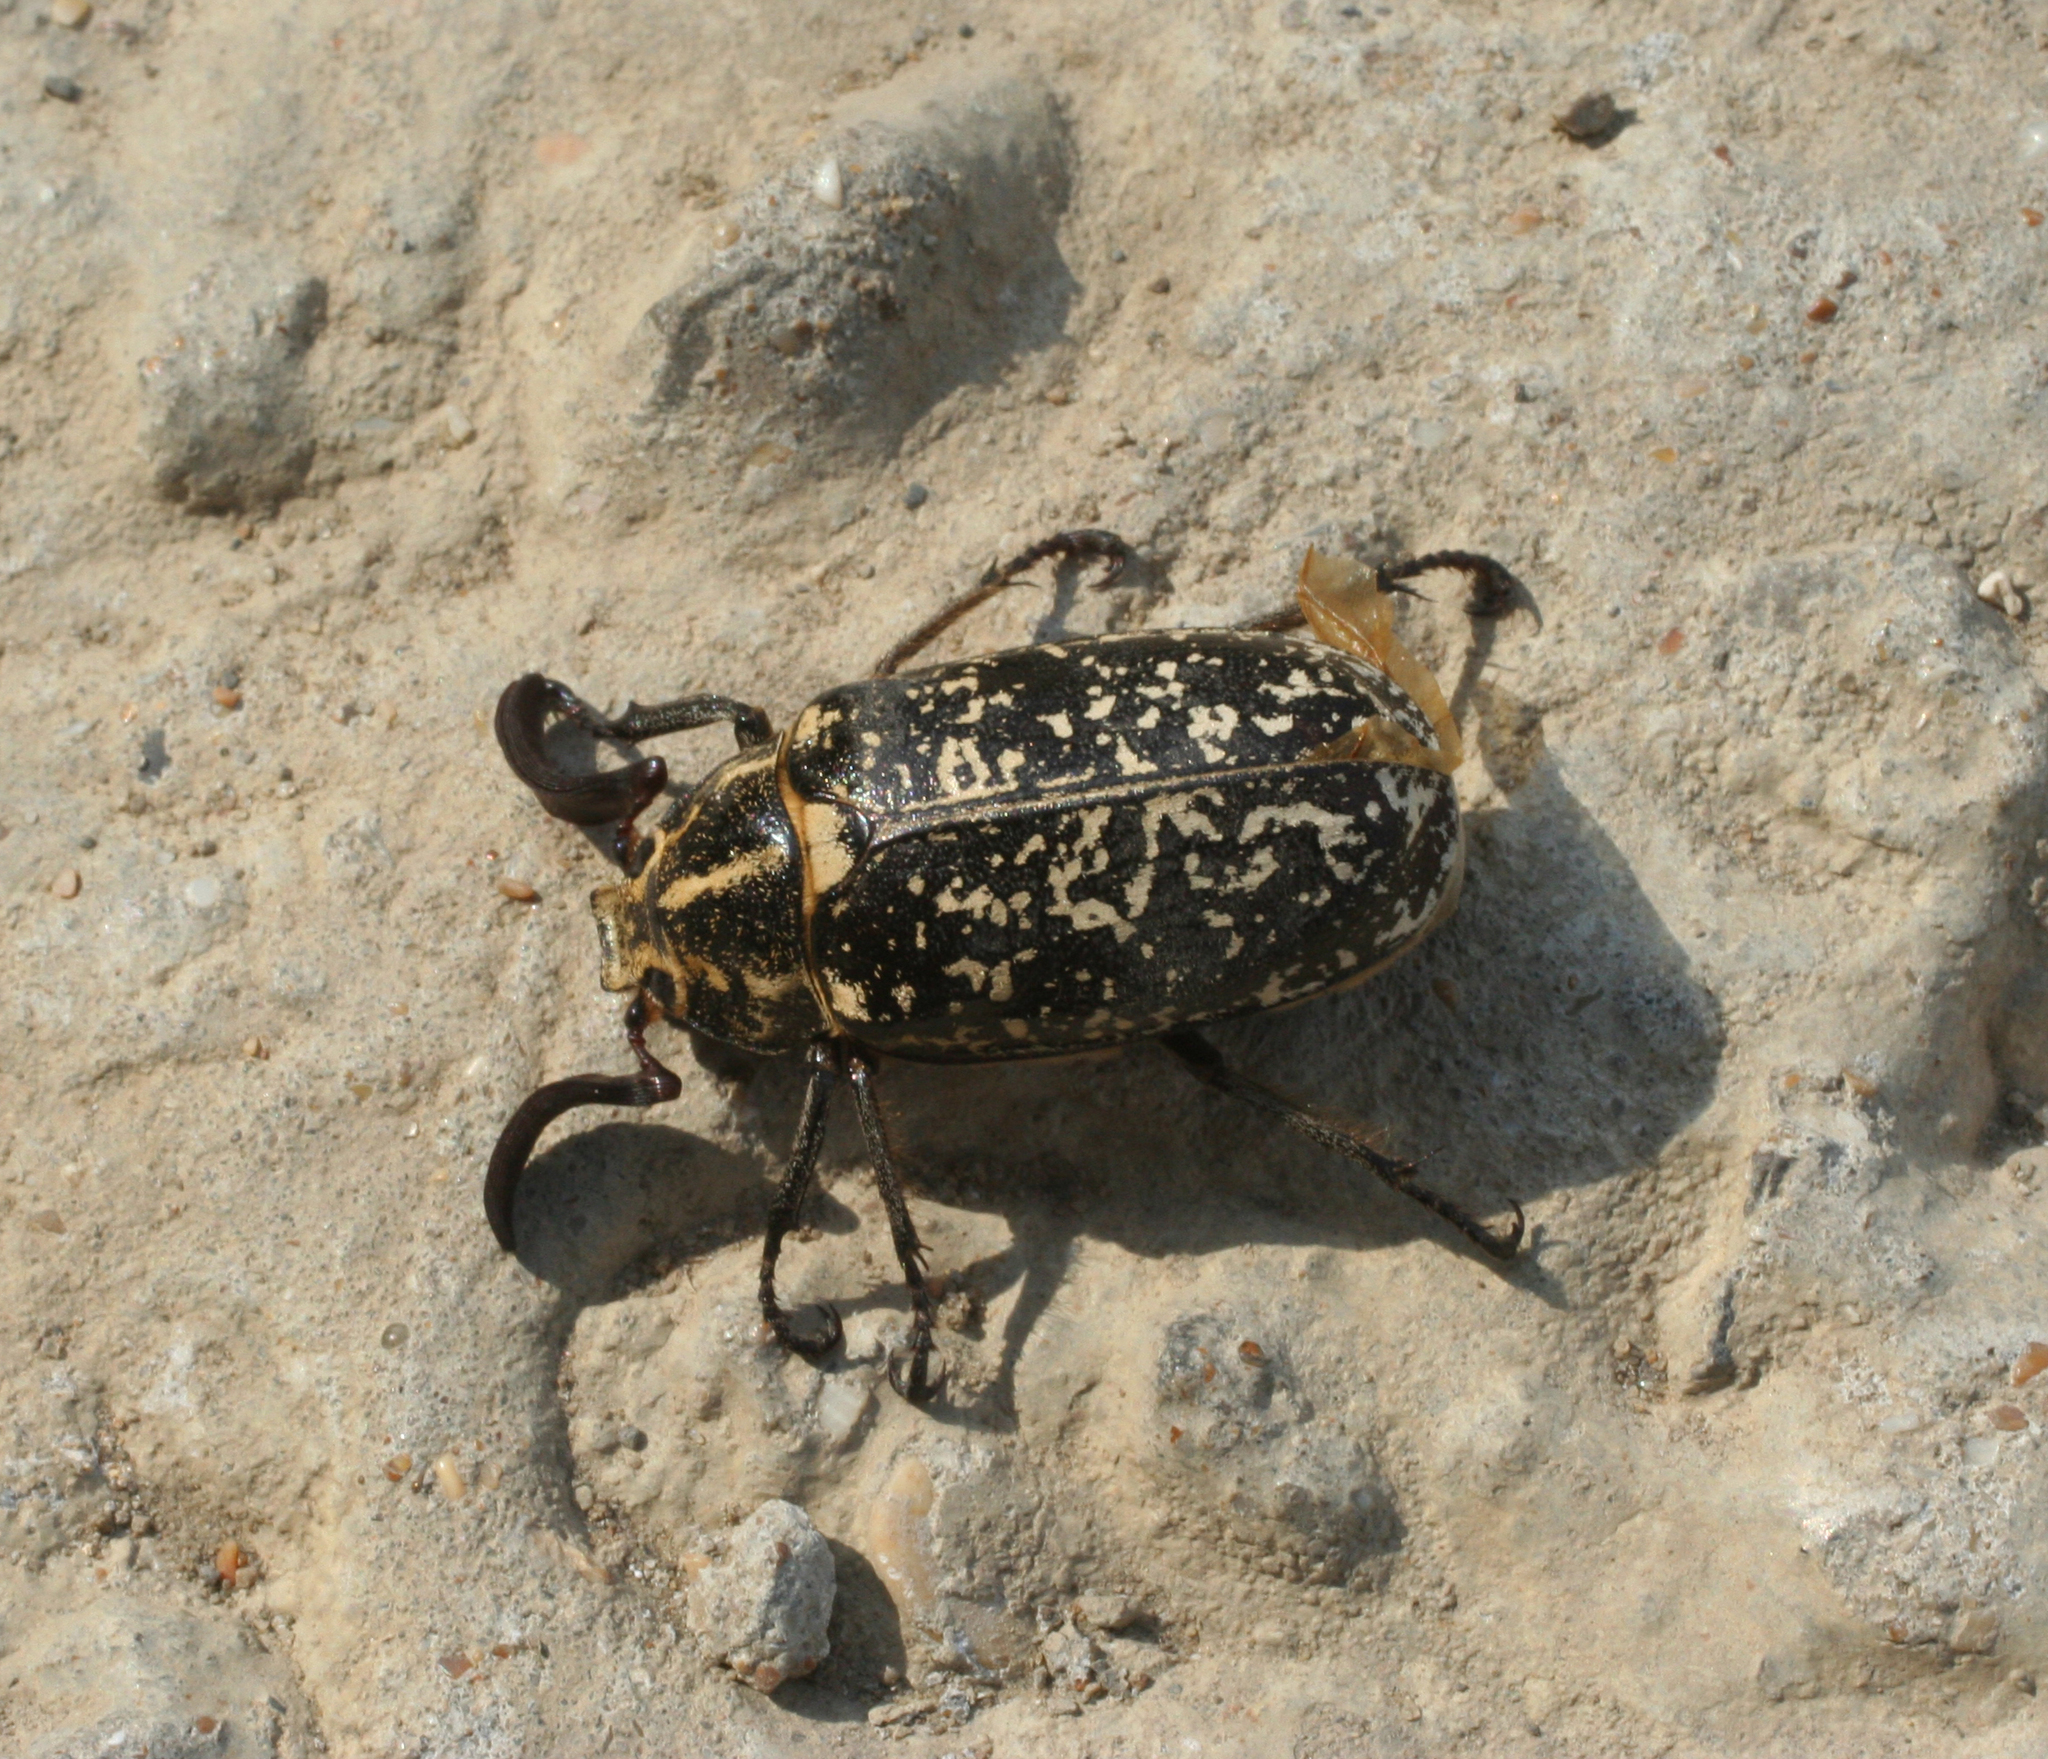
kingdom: Animalia
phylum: Arthropoda
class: Insecta
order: Coleoptera
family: Scarabaeidae
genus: Polyphylla
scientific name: Polyphylla fullo
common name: Pine chafer
